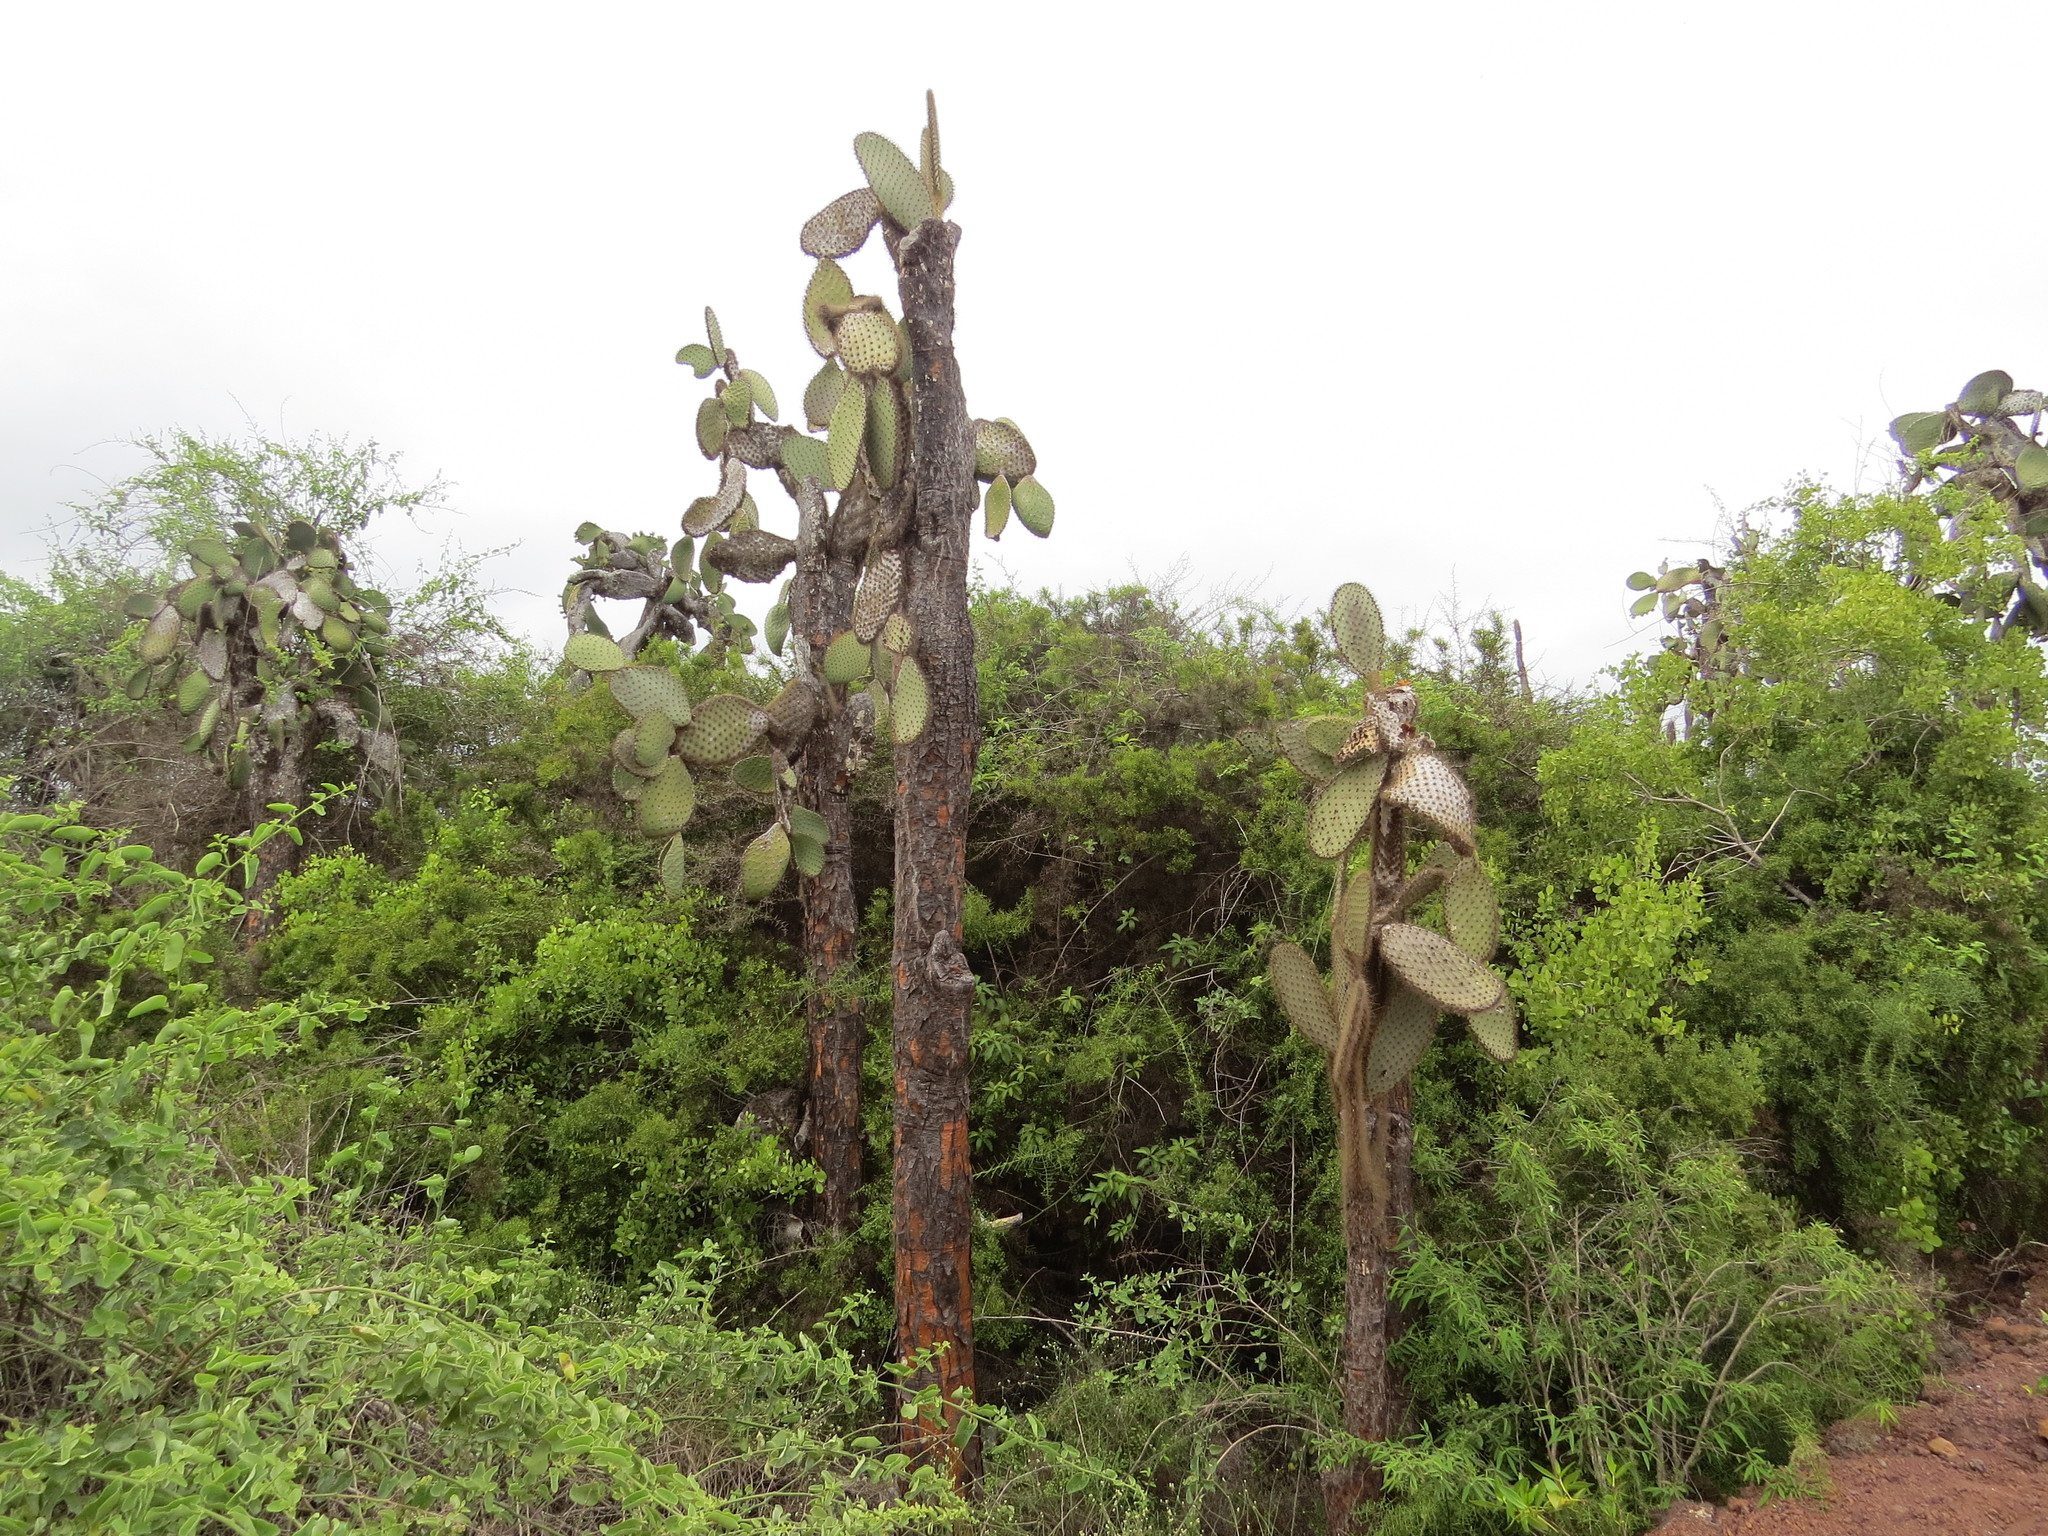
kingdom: Plantae
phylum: Tracheophyta
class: Magnoliopsida
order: Caryophyllales
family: Cactaceae
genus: Opuntia
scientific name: Opuntia galapageia
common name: Galápagos prickly pear
